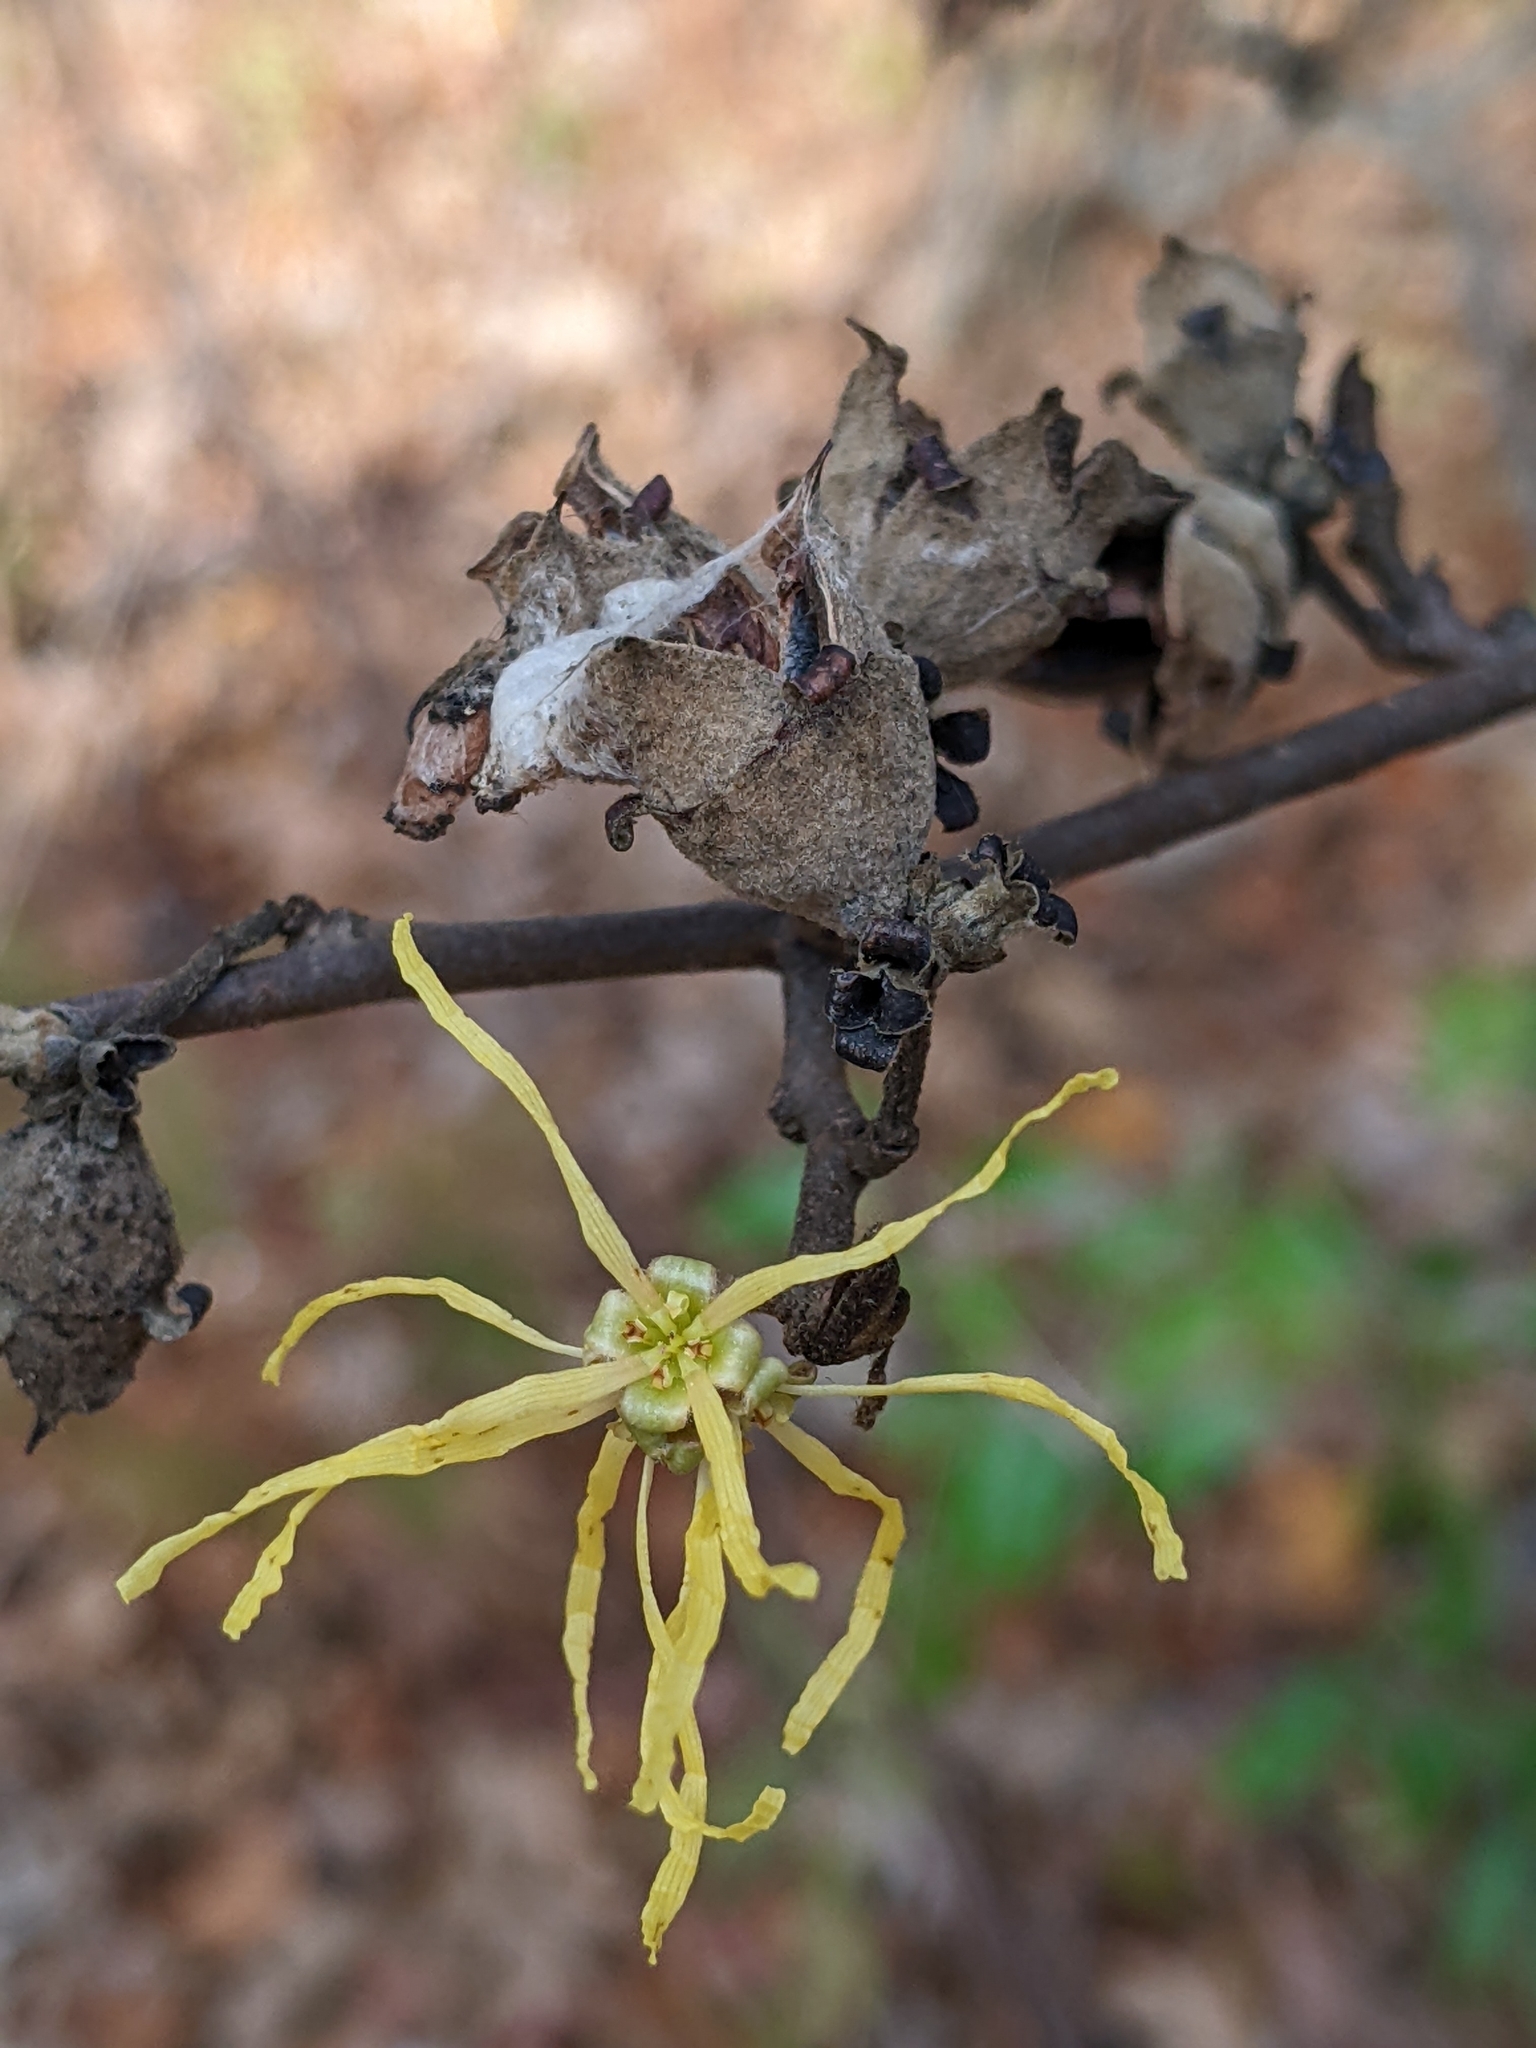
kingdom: Plantae
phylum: Tracheophyta
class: Magnoliopsida
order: Saxifragales
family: Hamamelidaceae
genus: Hamamelis
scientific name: Hamamelis virginiana
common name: Witch-hazel
